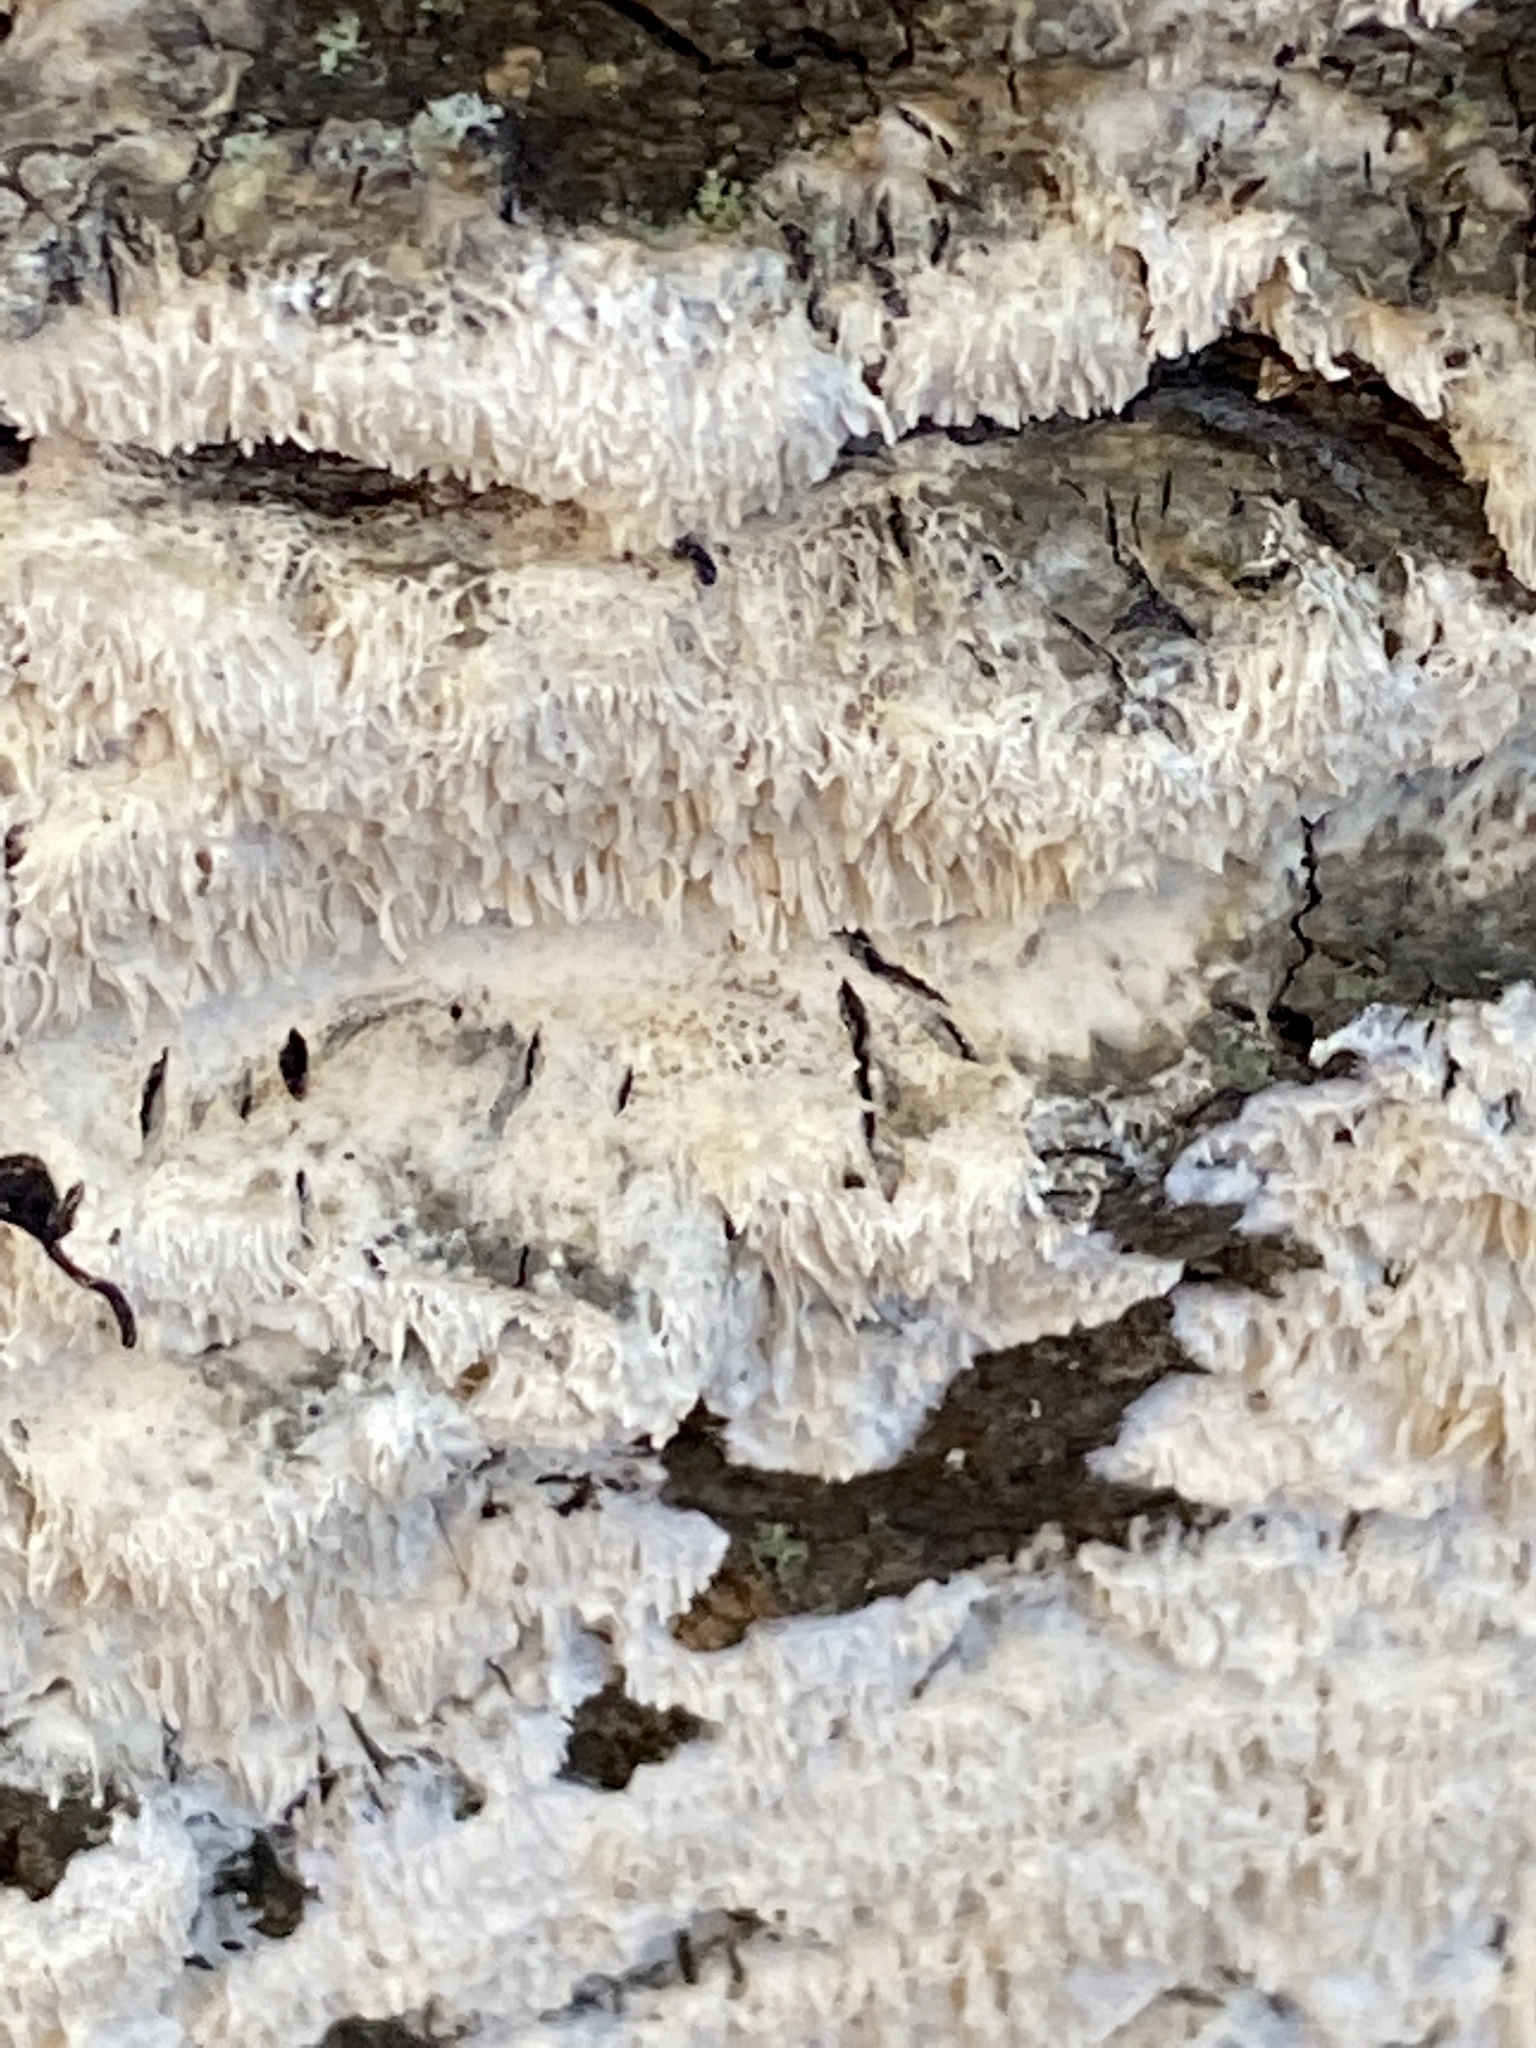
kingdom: Fungi
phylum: Basidiomycota
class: Agaricomycetes
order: Polyporales
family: Irpicaceae
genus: Irpex
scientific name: Irpex lacteus
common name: Milk-white toothed polypore
